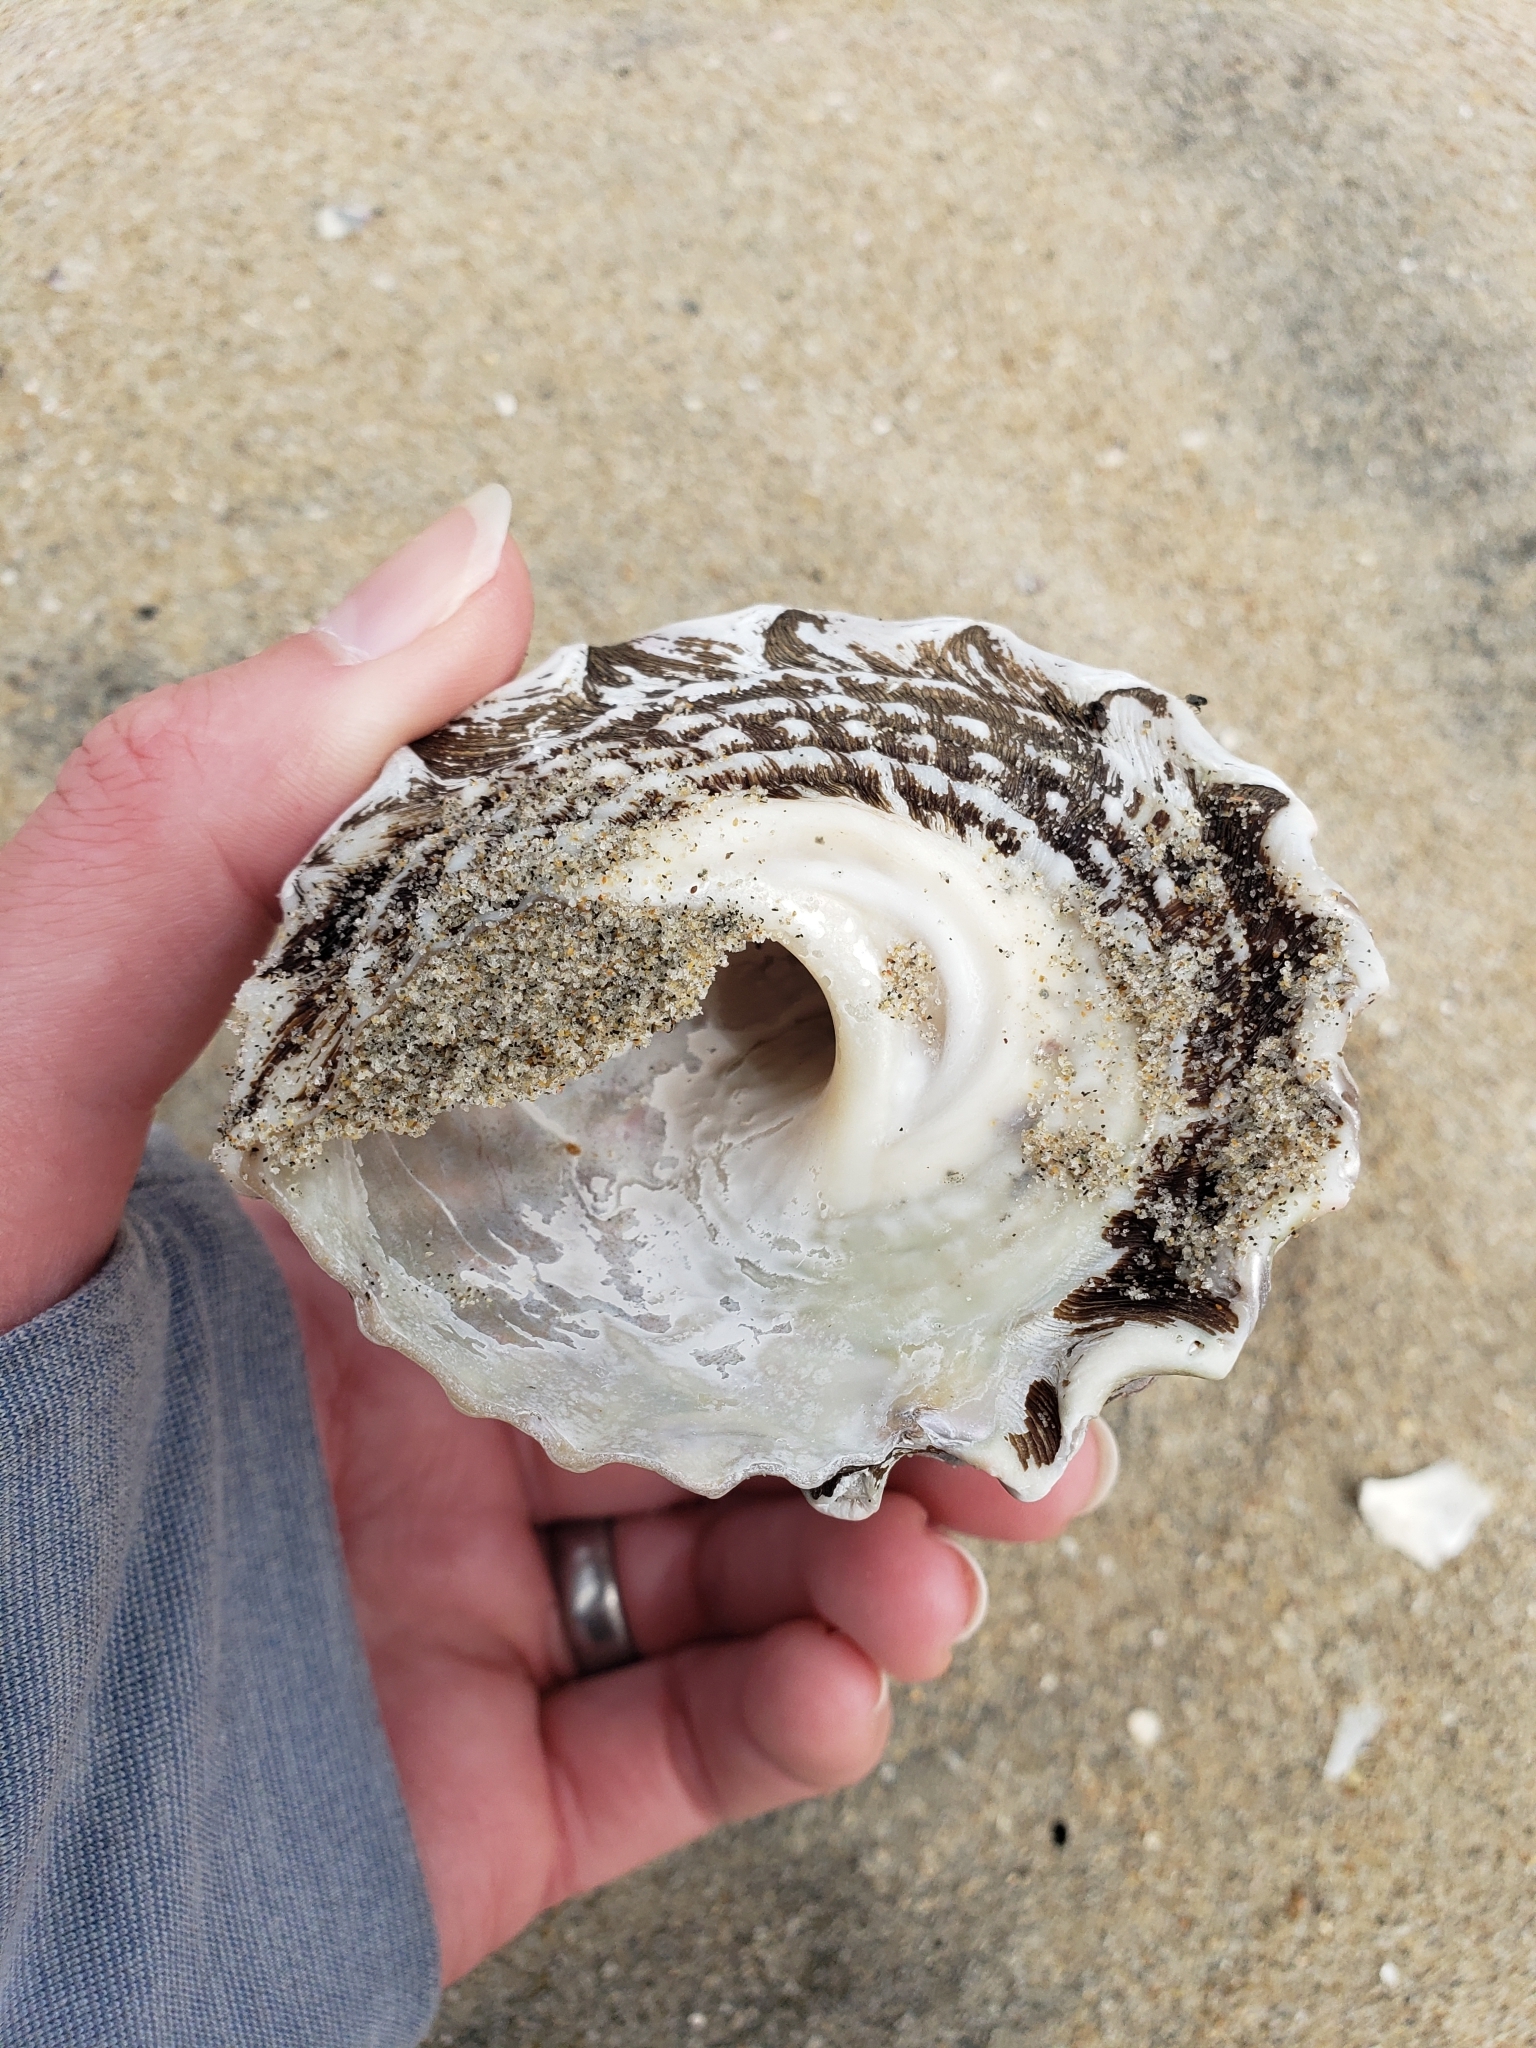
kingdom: Animalia
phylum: Mollusca
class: Gastropoda
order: Trochida
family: Turbinidae
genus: Megastraea
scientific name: Megastraea undosa
